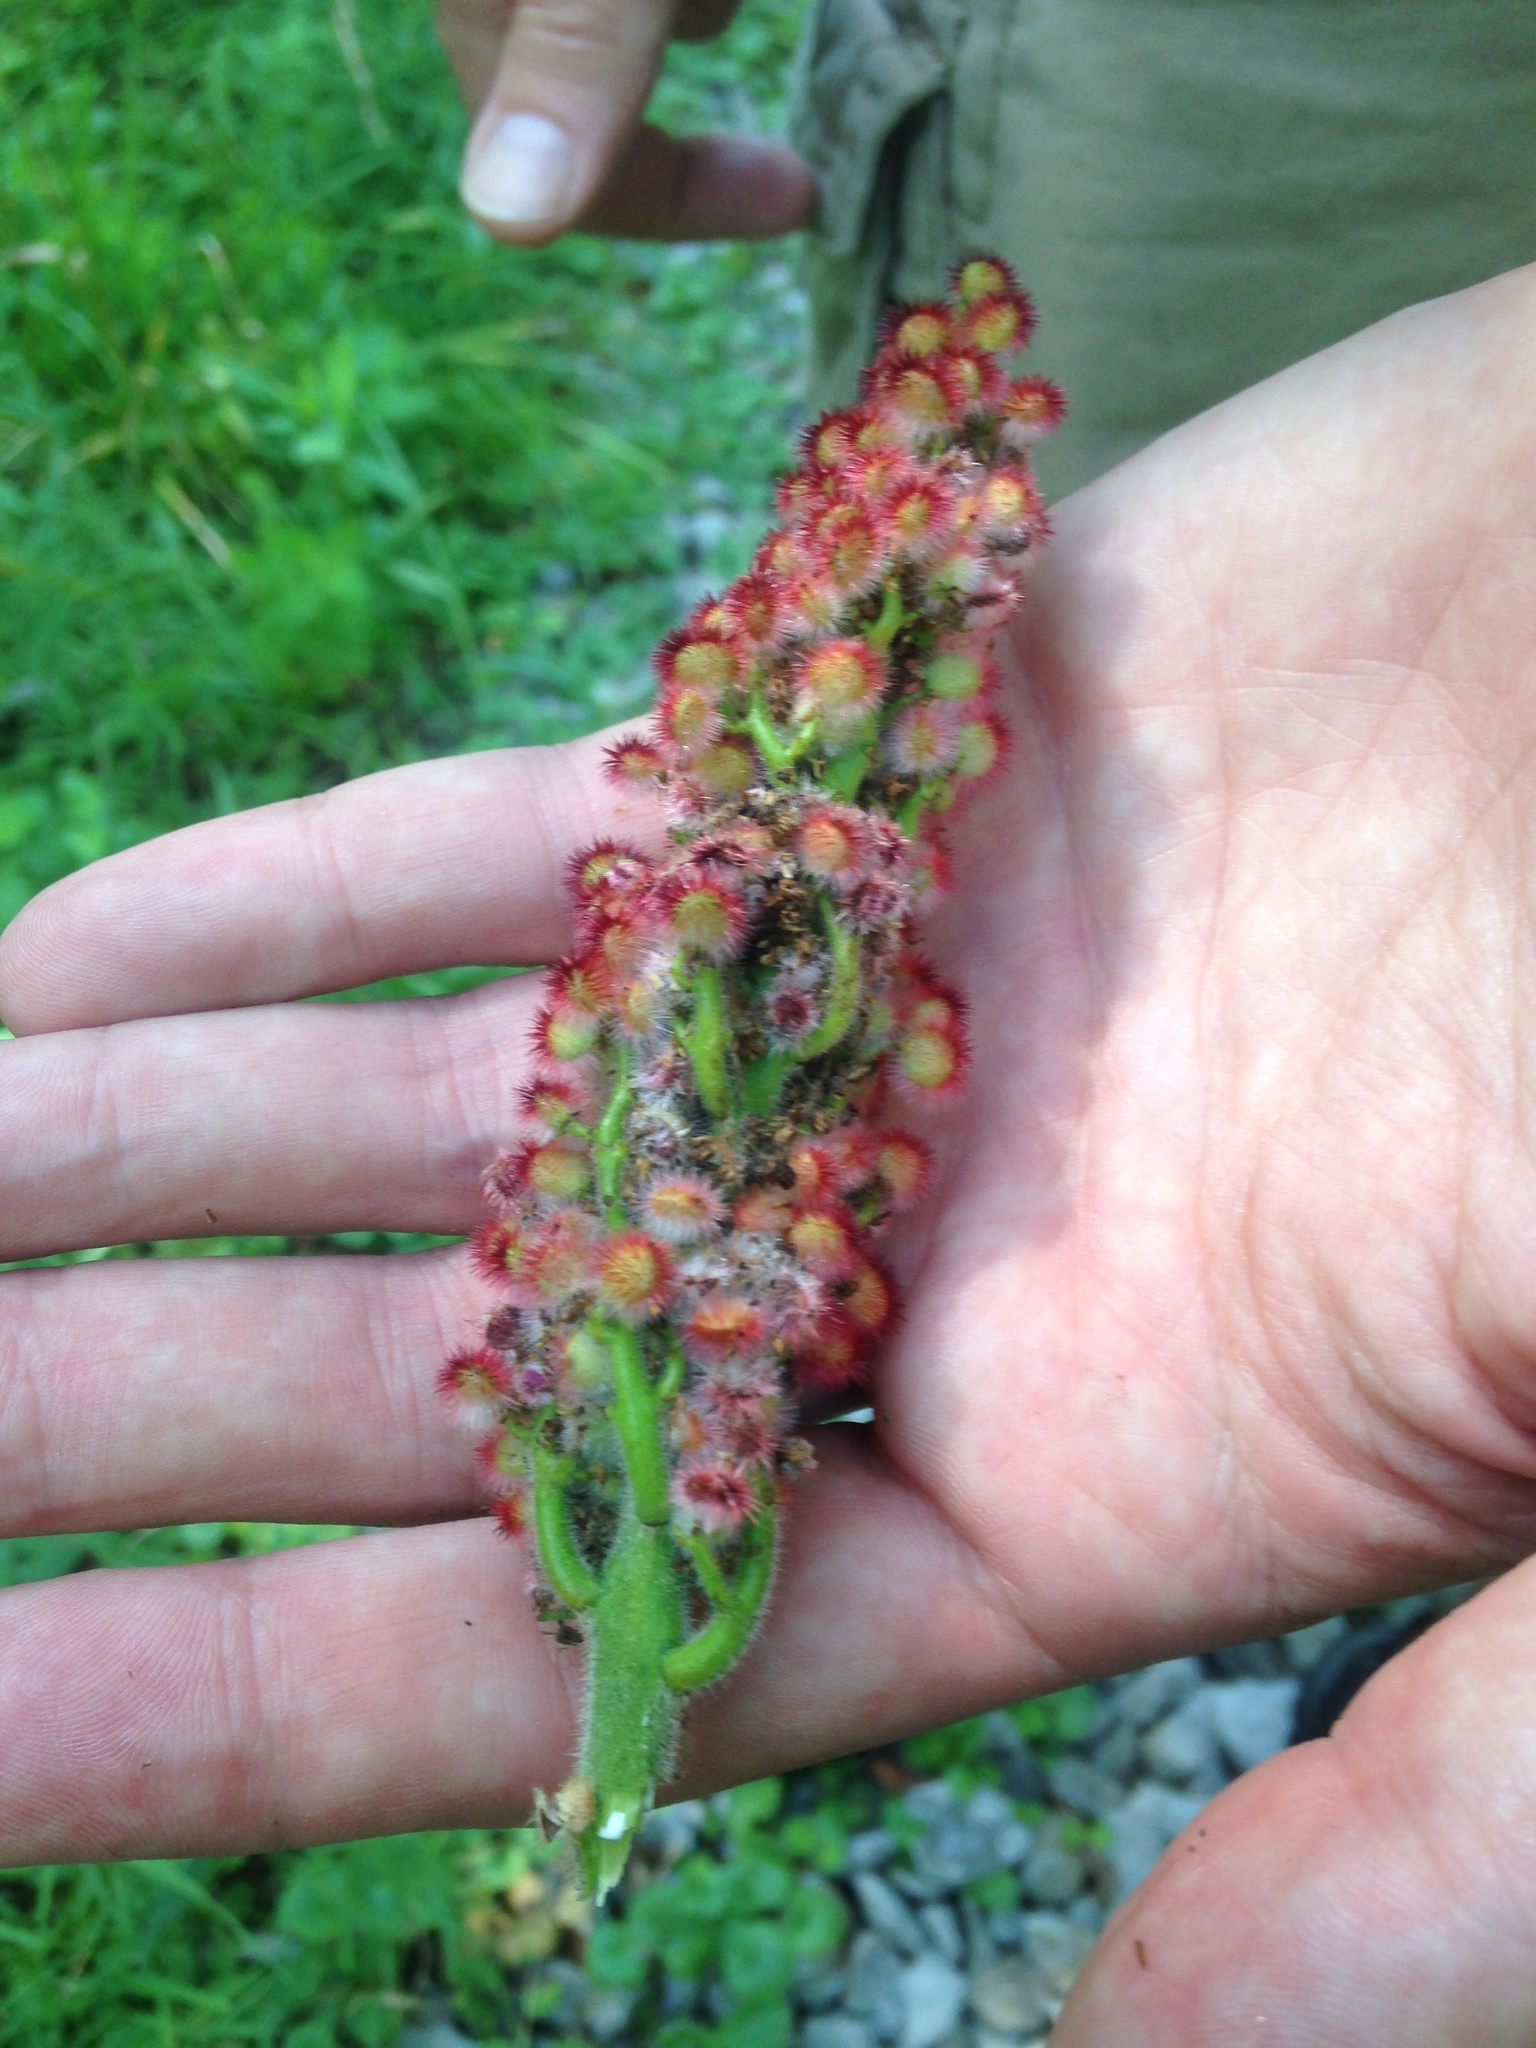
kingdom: Plantae
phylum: Tracheophyta
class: Magnoliopsida
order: Sapindales
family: Anacardiaceae
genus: Rhus
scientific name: Rhus typhina
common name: Staghorn sumac
